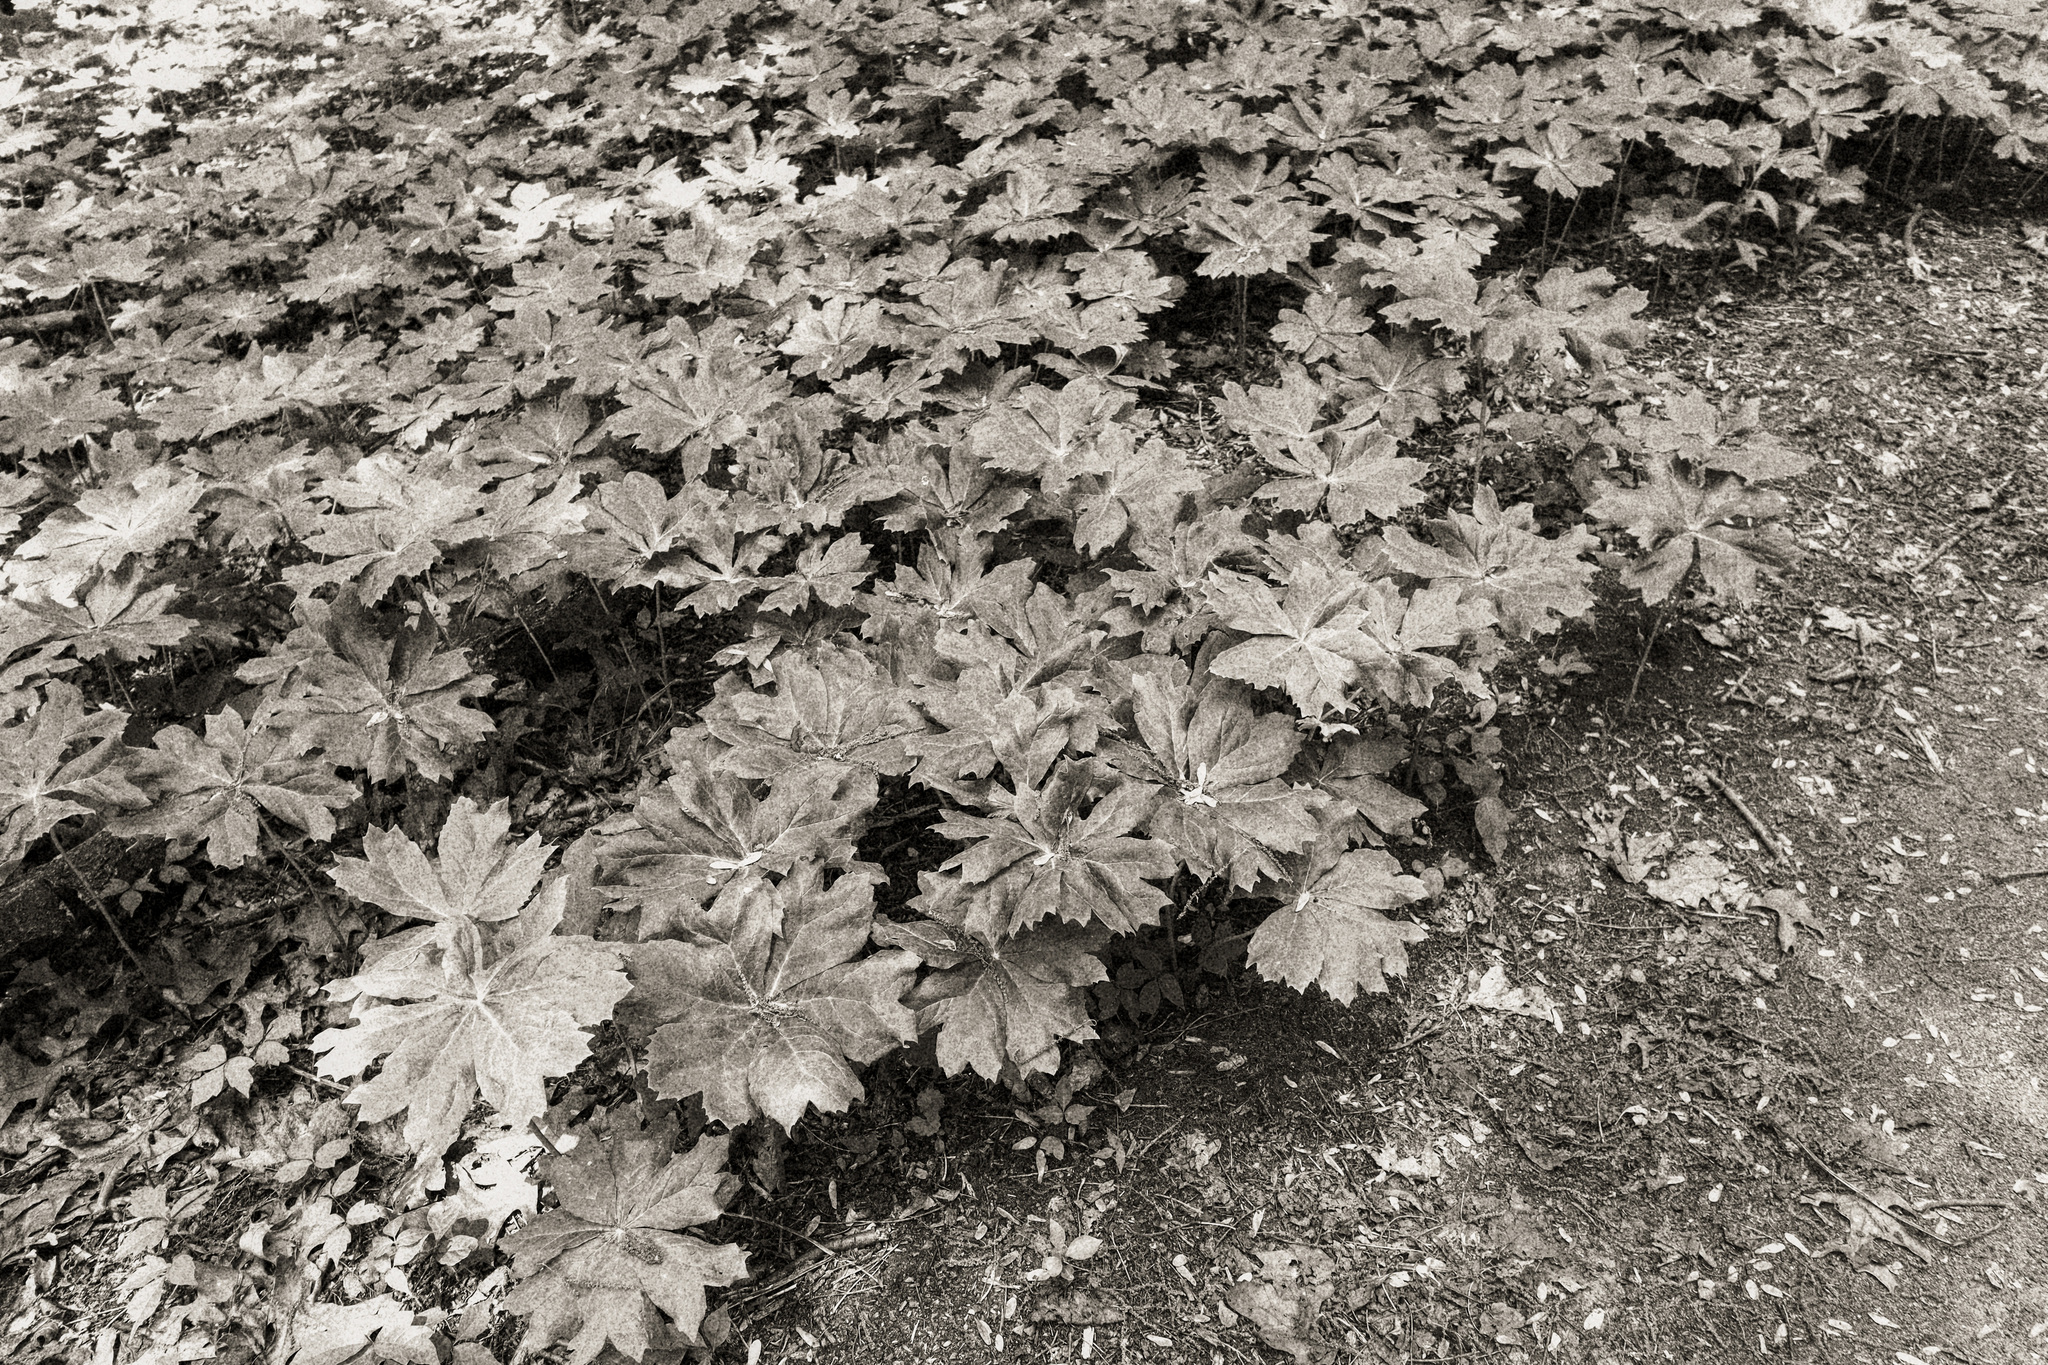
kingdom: Plantae
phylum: Tracheophyta
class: Magnoliopsida
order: Ranunculales
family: Berberidaceae
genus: Podophyllum
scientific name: Podophyllum peltatum
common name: Wild mandrake
